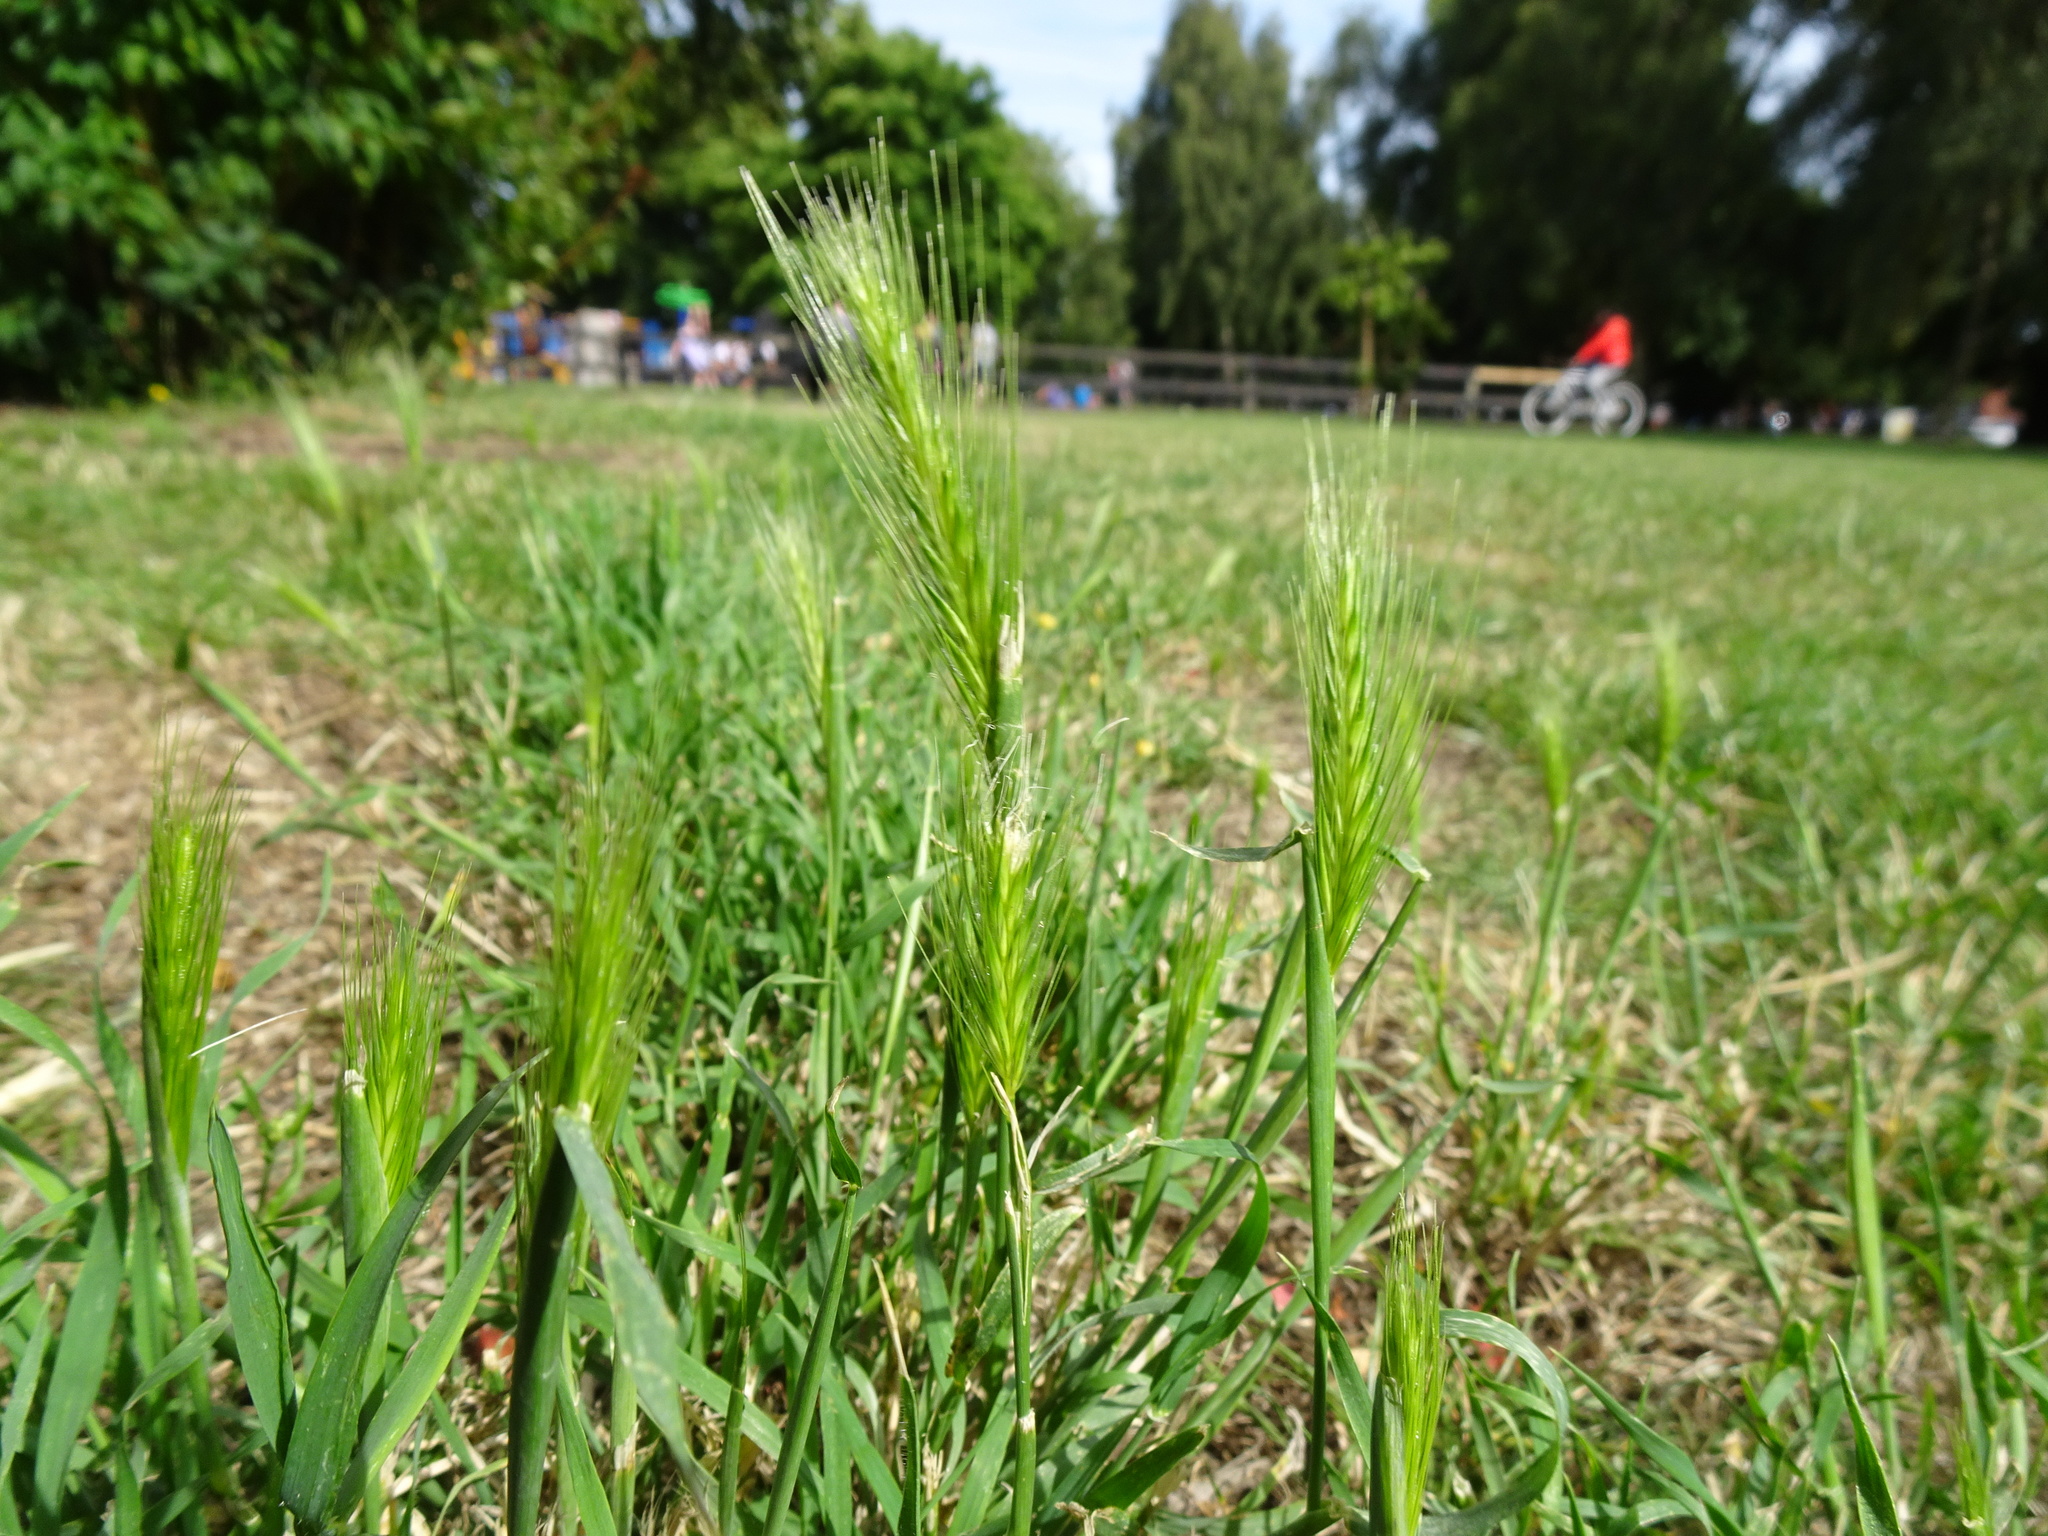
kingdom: Plantae
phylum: Tracheophyta
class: Liliopsida
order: Poales
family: Poaceae
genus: Hordeum
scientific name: Hordeum murinum
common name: Wall barley
